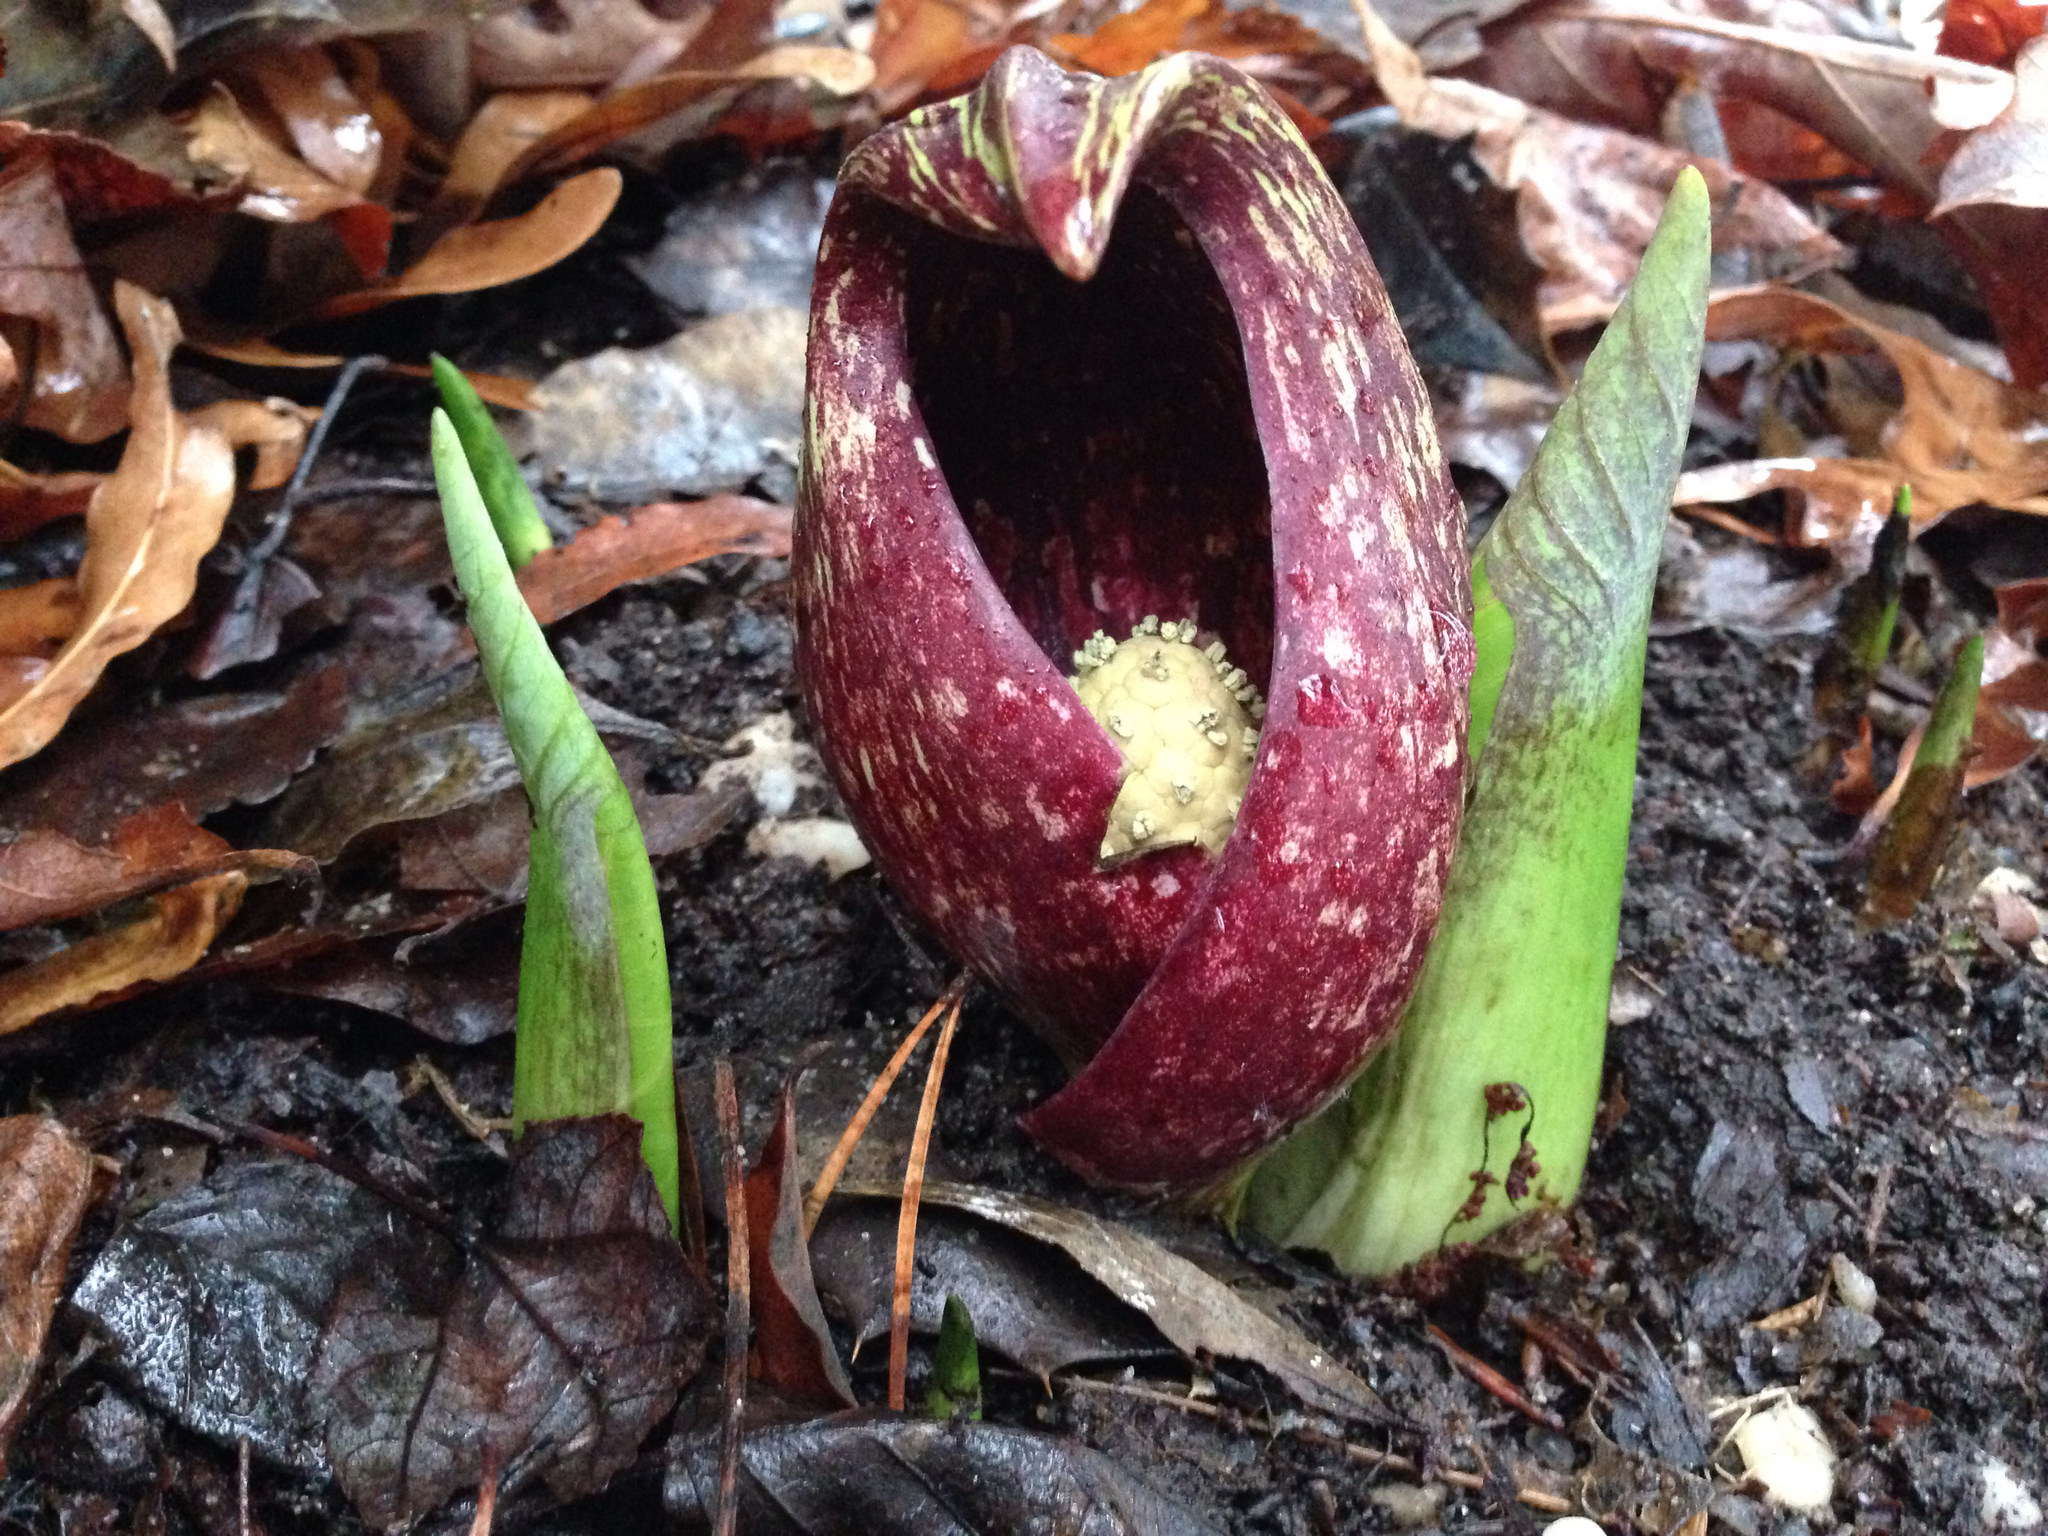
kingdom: Plantae
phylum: Tracheophyta
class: Liliopsida
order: Alismatales
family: Araceae
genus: Symplocarpus
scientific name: Symplocarpus foetidus
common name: Eastern skunk cabbage
